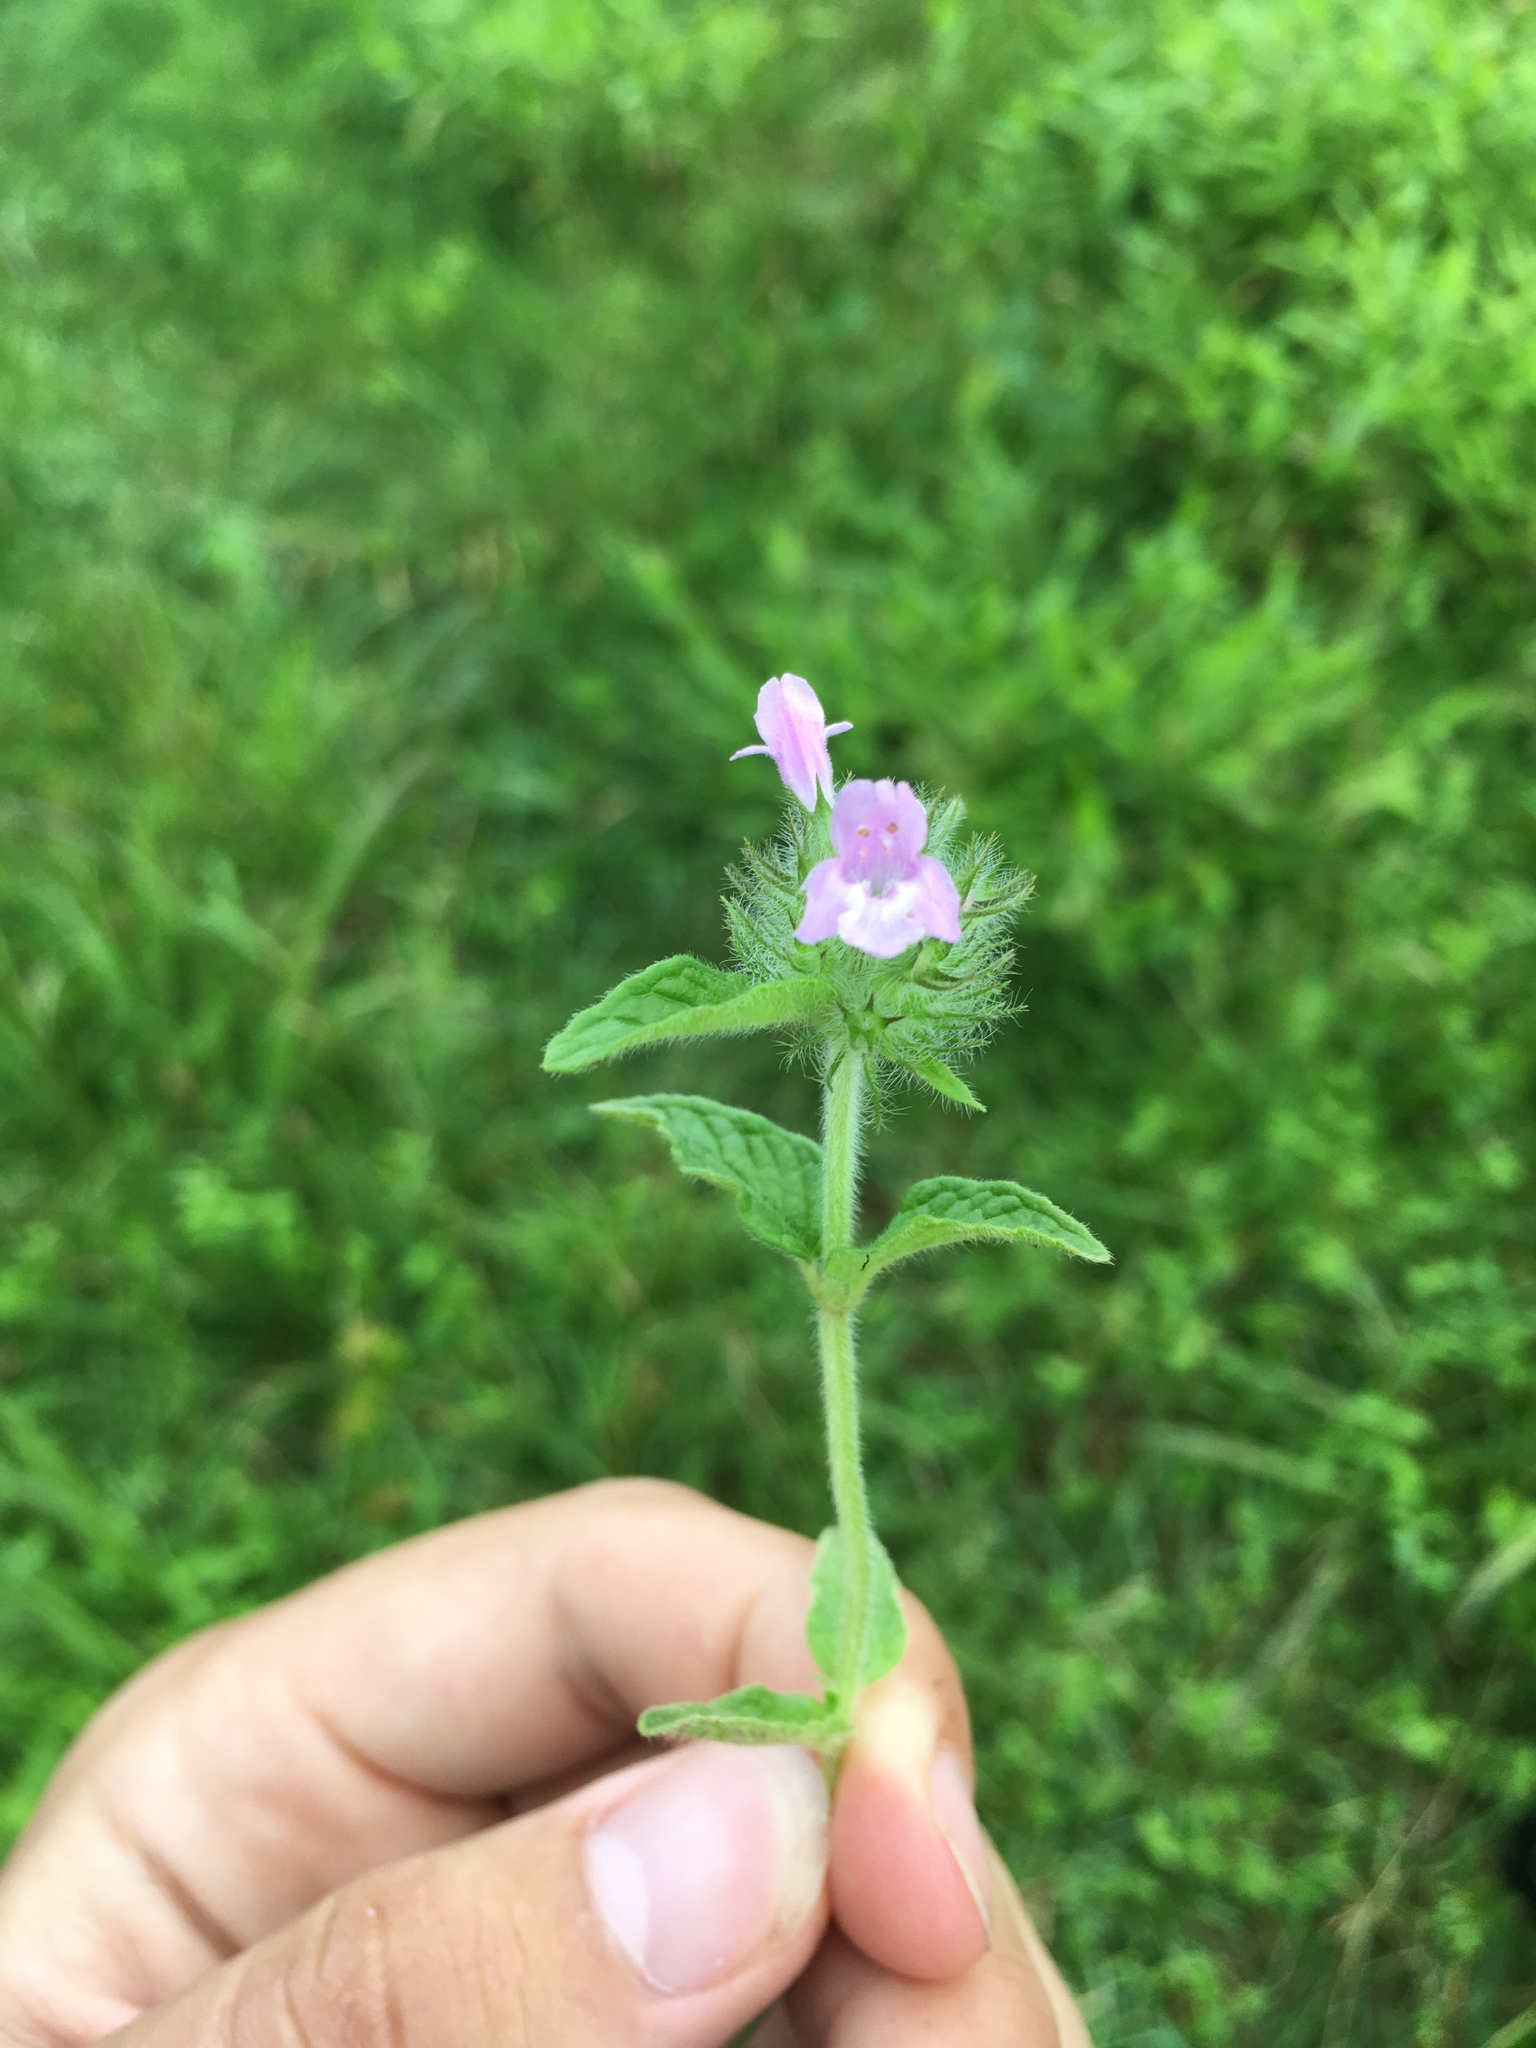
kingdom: Plantae
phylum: Tracheophyta
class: Magnoliopsida
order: Lamiales
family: Lamiaceae
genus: Clinopodium
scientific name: Clinopodium vulgare
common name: Wild basil
